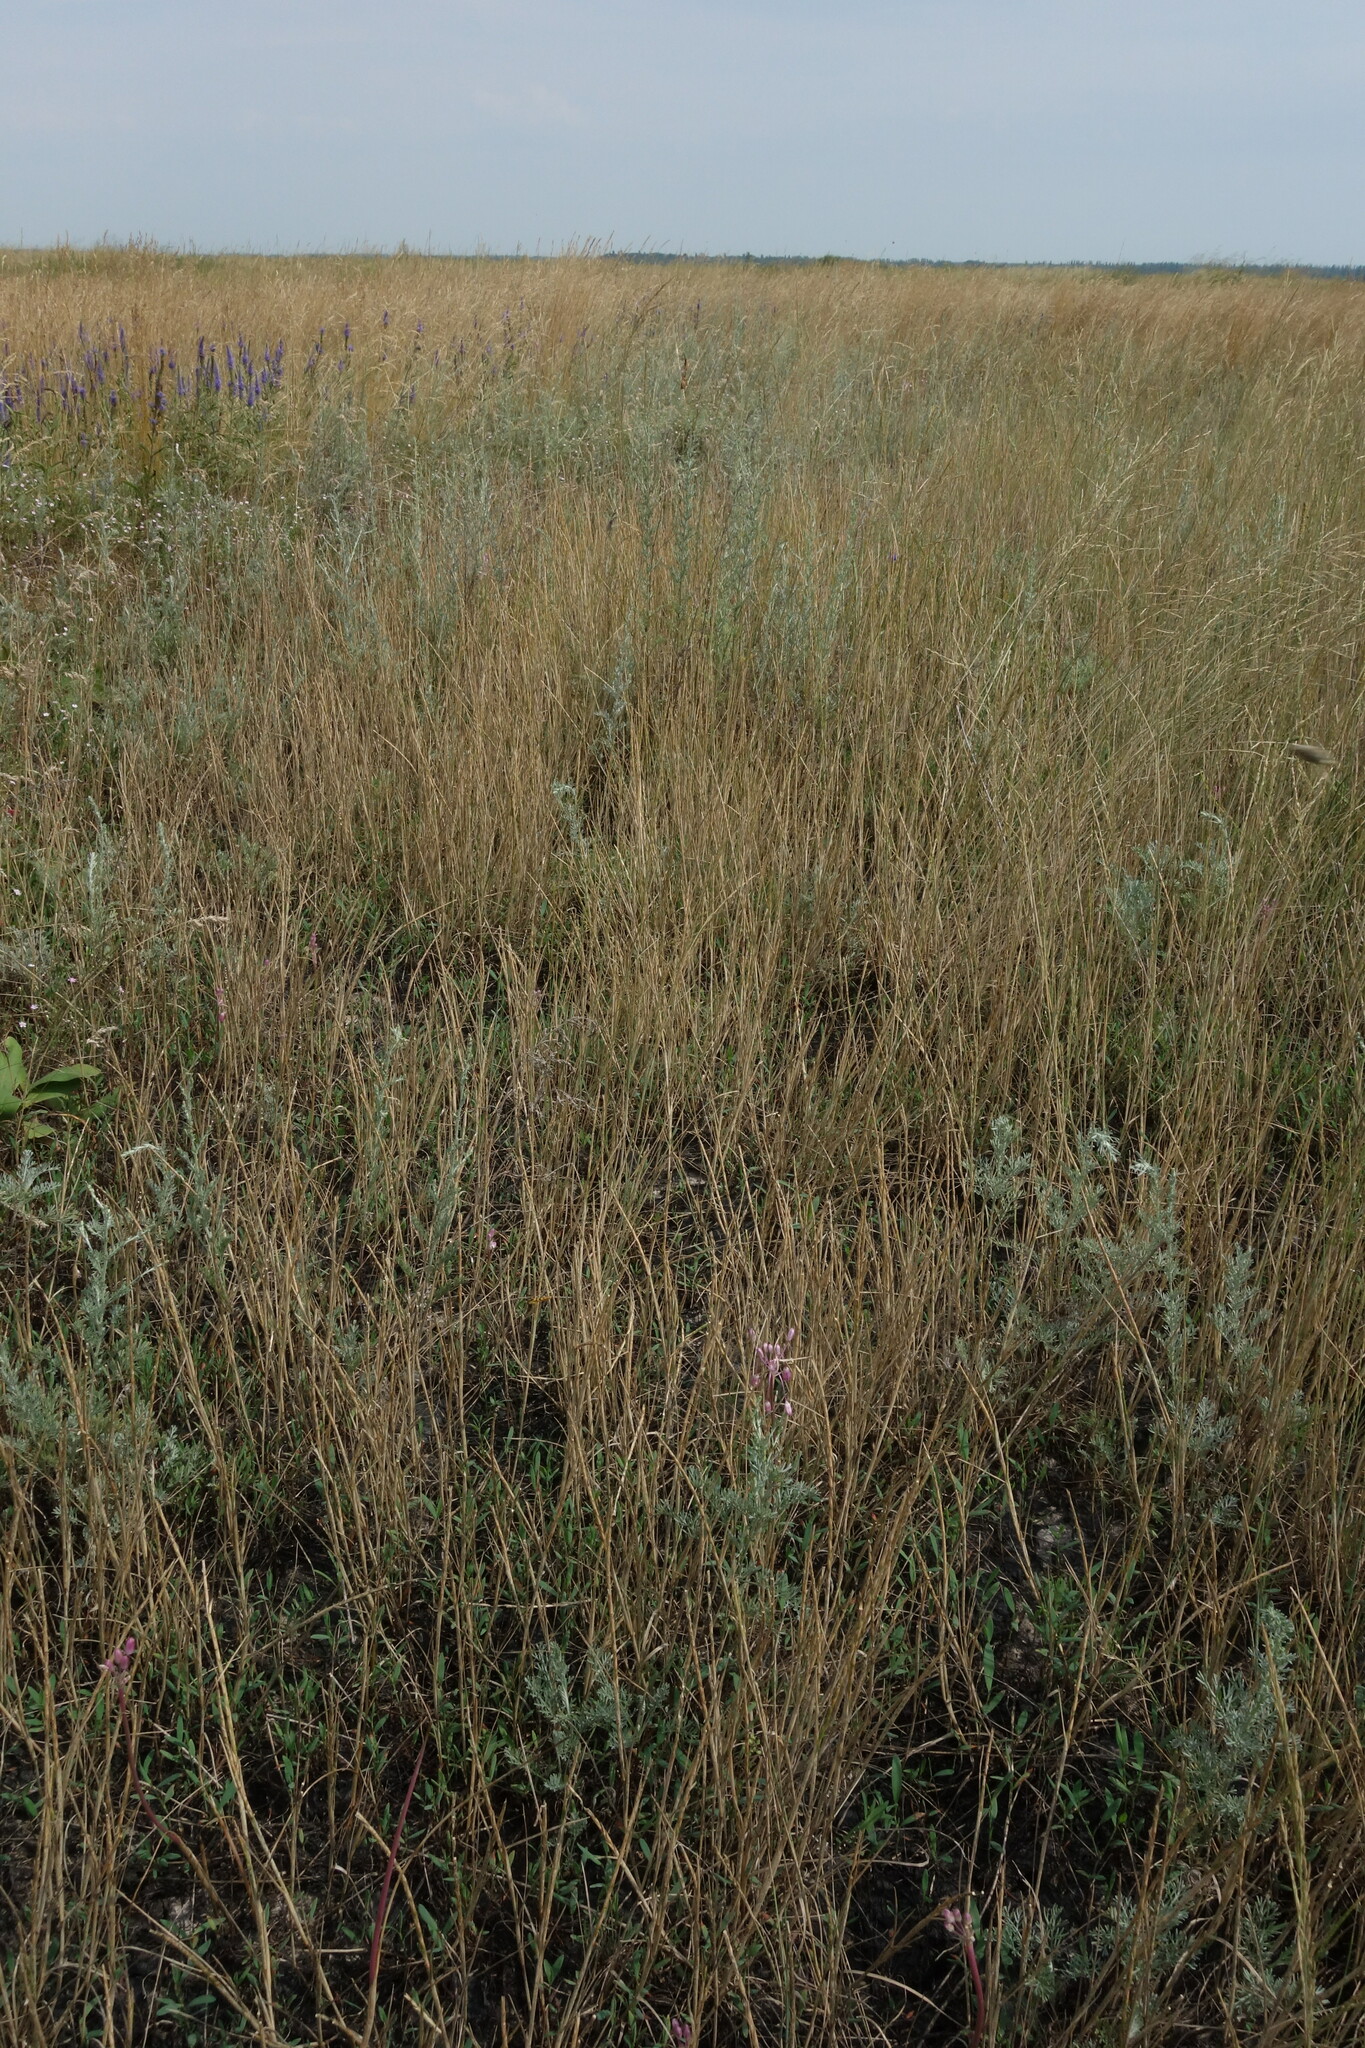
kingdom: Plantae
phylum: Tracheophyta
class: Liliopsida
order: Poales
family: Poaceae
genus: Pholiurus
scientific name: Pholiurus pannonicus
